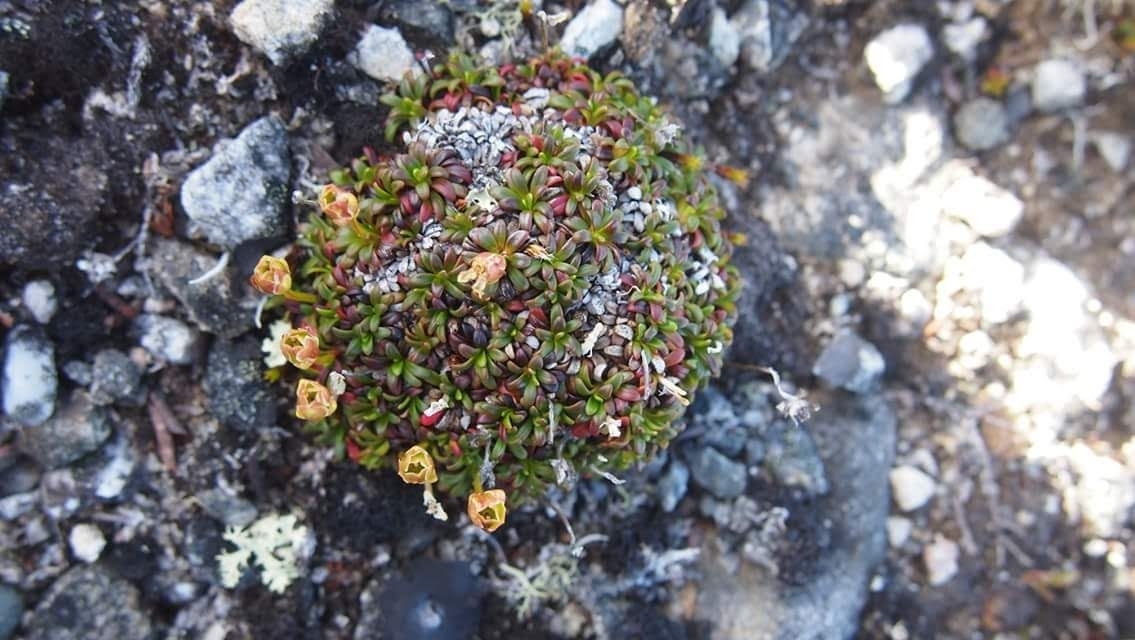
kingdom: Plantae
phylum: Tracheophyta
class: Magnoliopsida
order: Ericales
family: Diapensiaceae
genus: Diapensia
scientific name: Diapensia lapponica
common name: Diapensia
